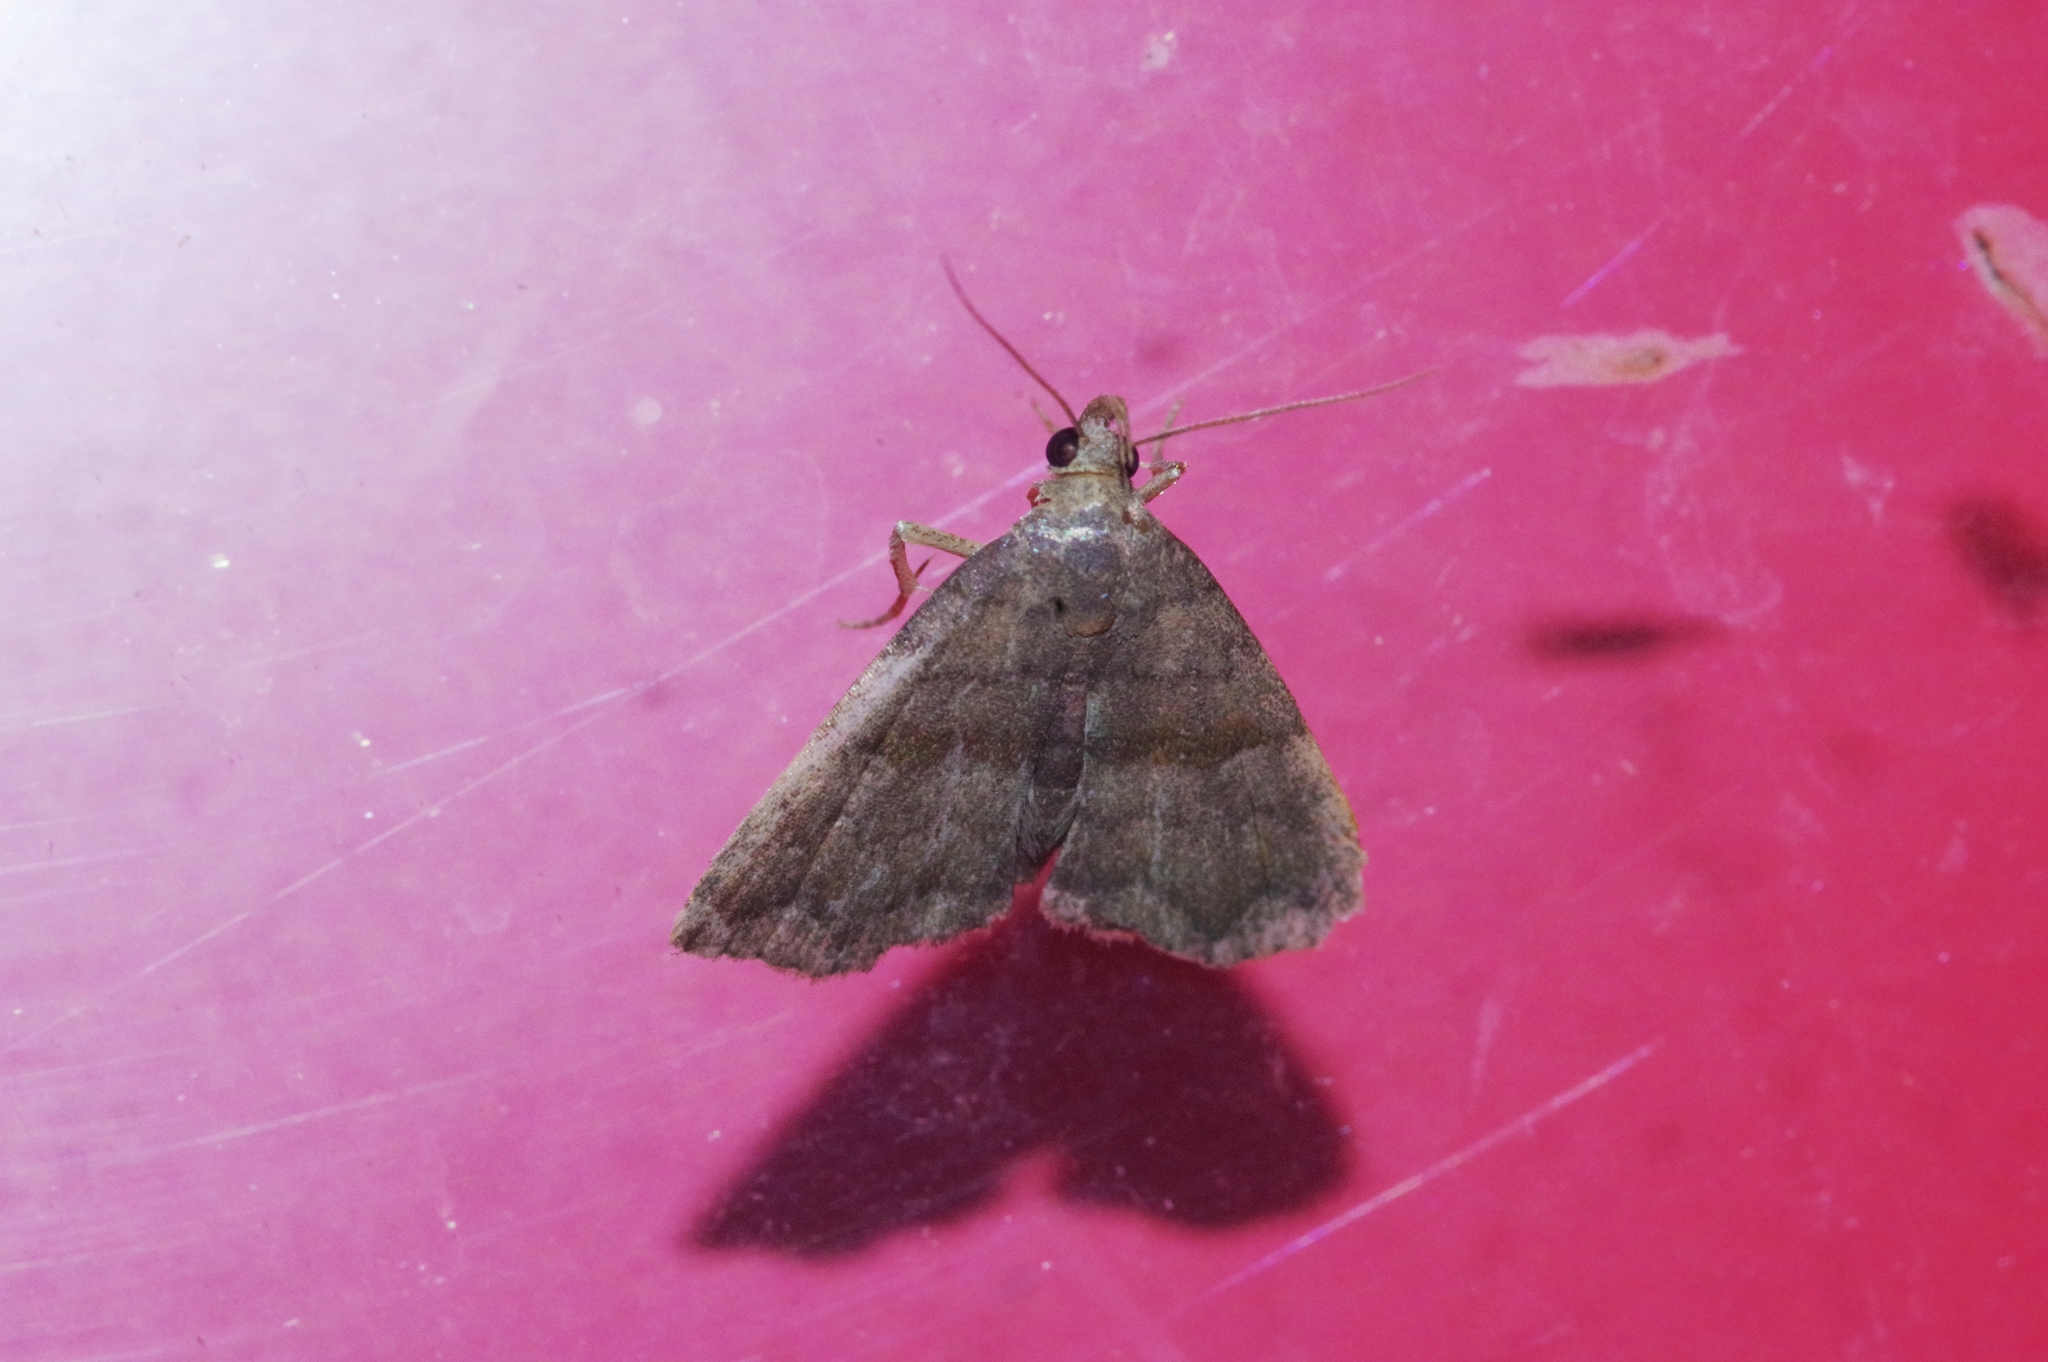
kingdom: Animalia
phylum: Arthropoda
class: Insecta
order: Lepidoptera
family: Erebidae
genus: Polypogon
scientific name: Polypogon Hipoepa fractalis
